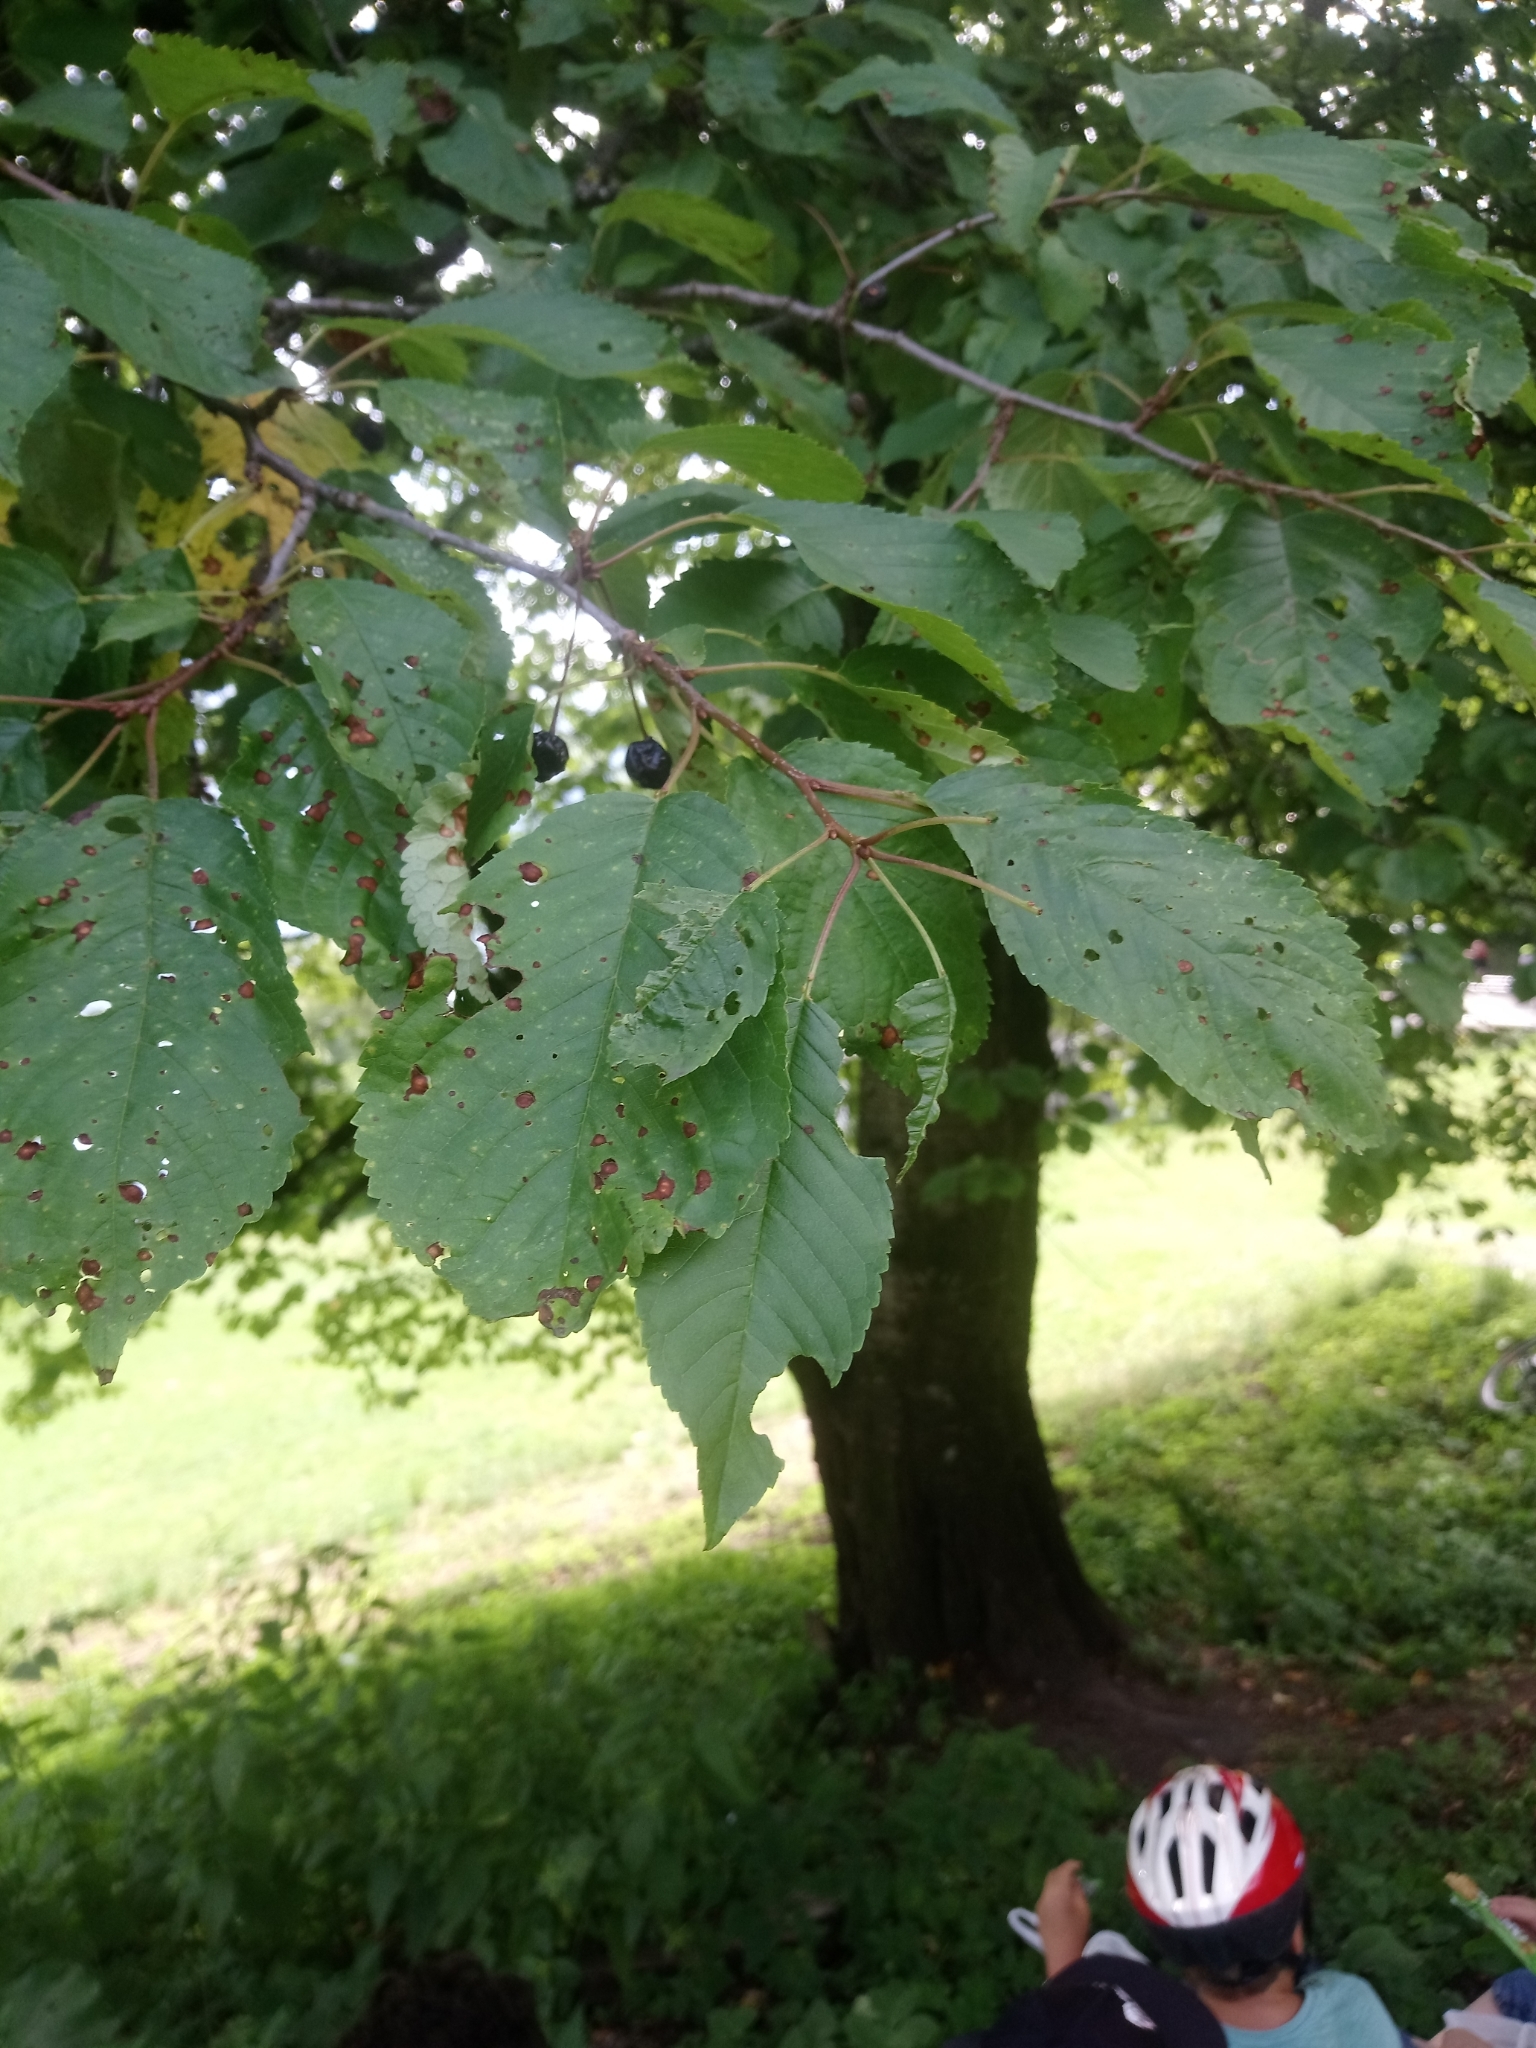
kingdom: Plantae
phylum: Tracheophyta
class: Magnoliopsida
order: Rosales
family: Rosaceae
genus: Prunus
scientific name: Prunus avium
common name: Sweet cherry
